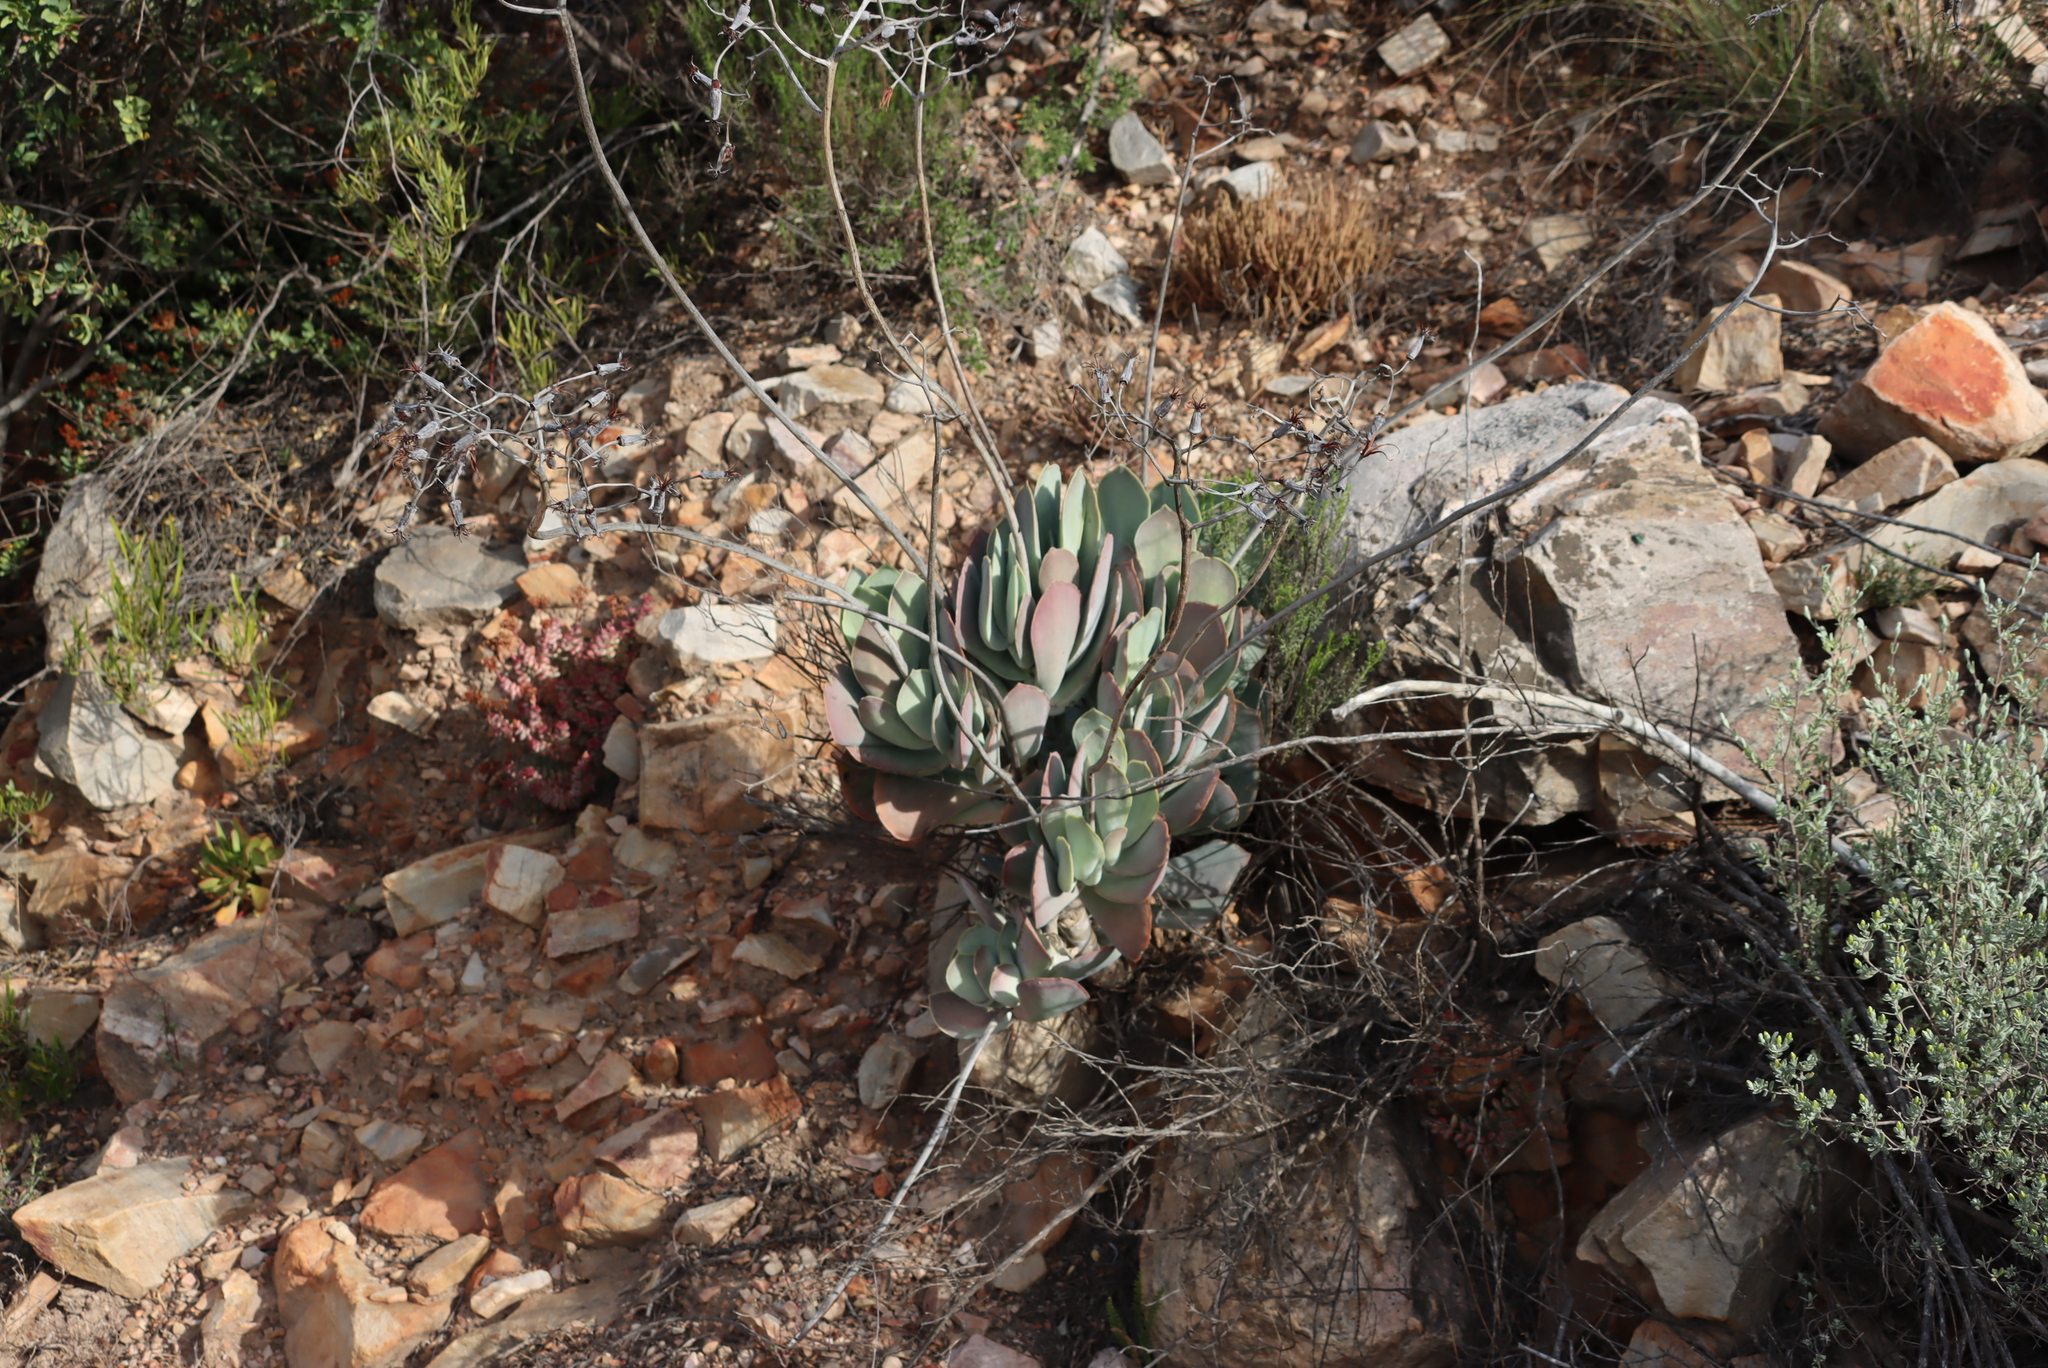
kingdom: Plantae
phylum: Tracheophyta
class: Magnoliopsida
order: Saxifragales
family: Crassulaceae
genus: Cotyledon
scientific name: Cotyledon orbiculata
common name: Pig's ear
